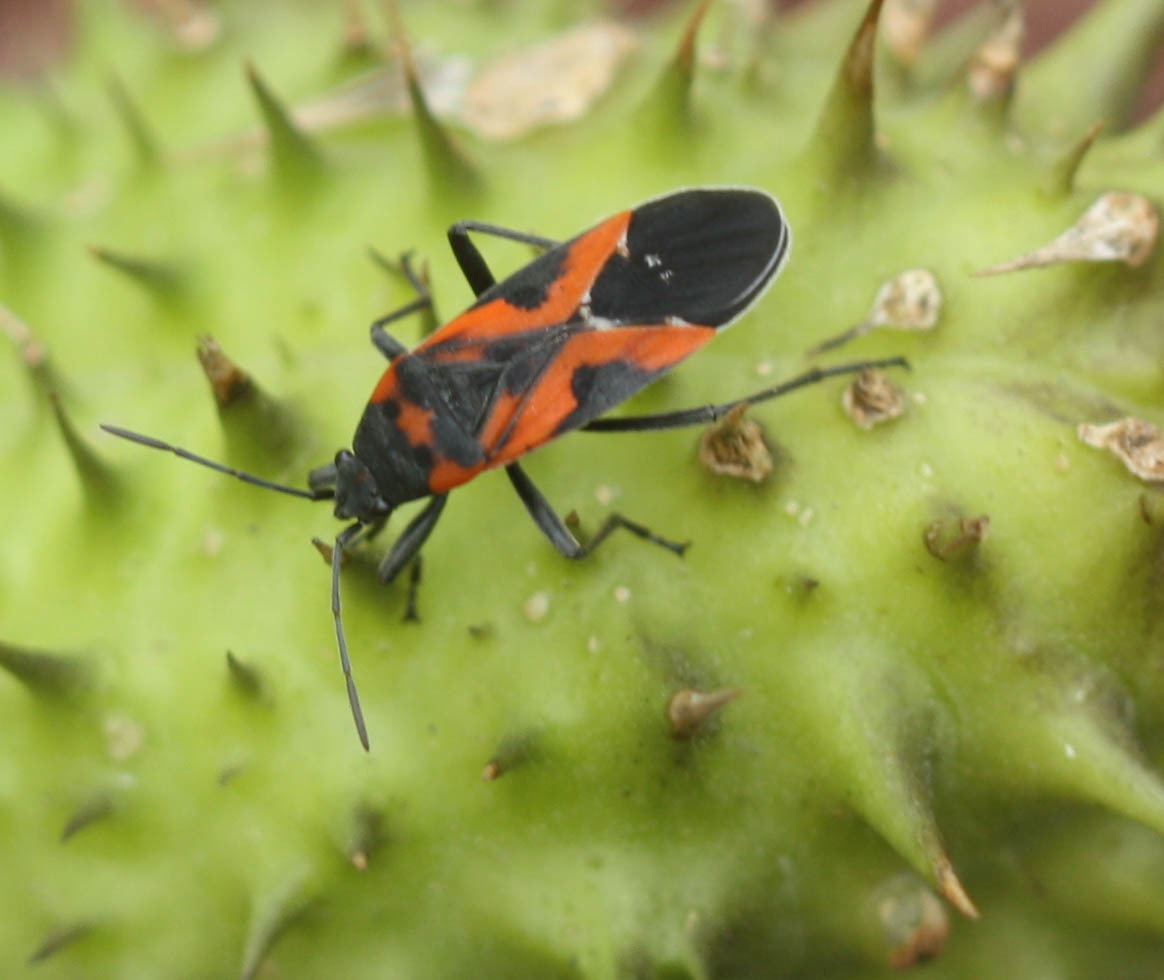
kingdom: Animalia
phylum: Arthropoda
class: Insecta
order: Hemiptera
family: Lygaeidae
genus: Lygaeus
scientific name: Lygaeus reclivatus
